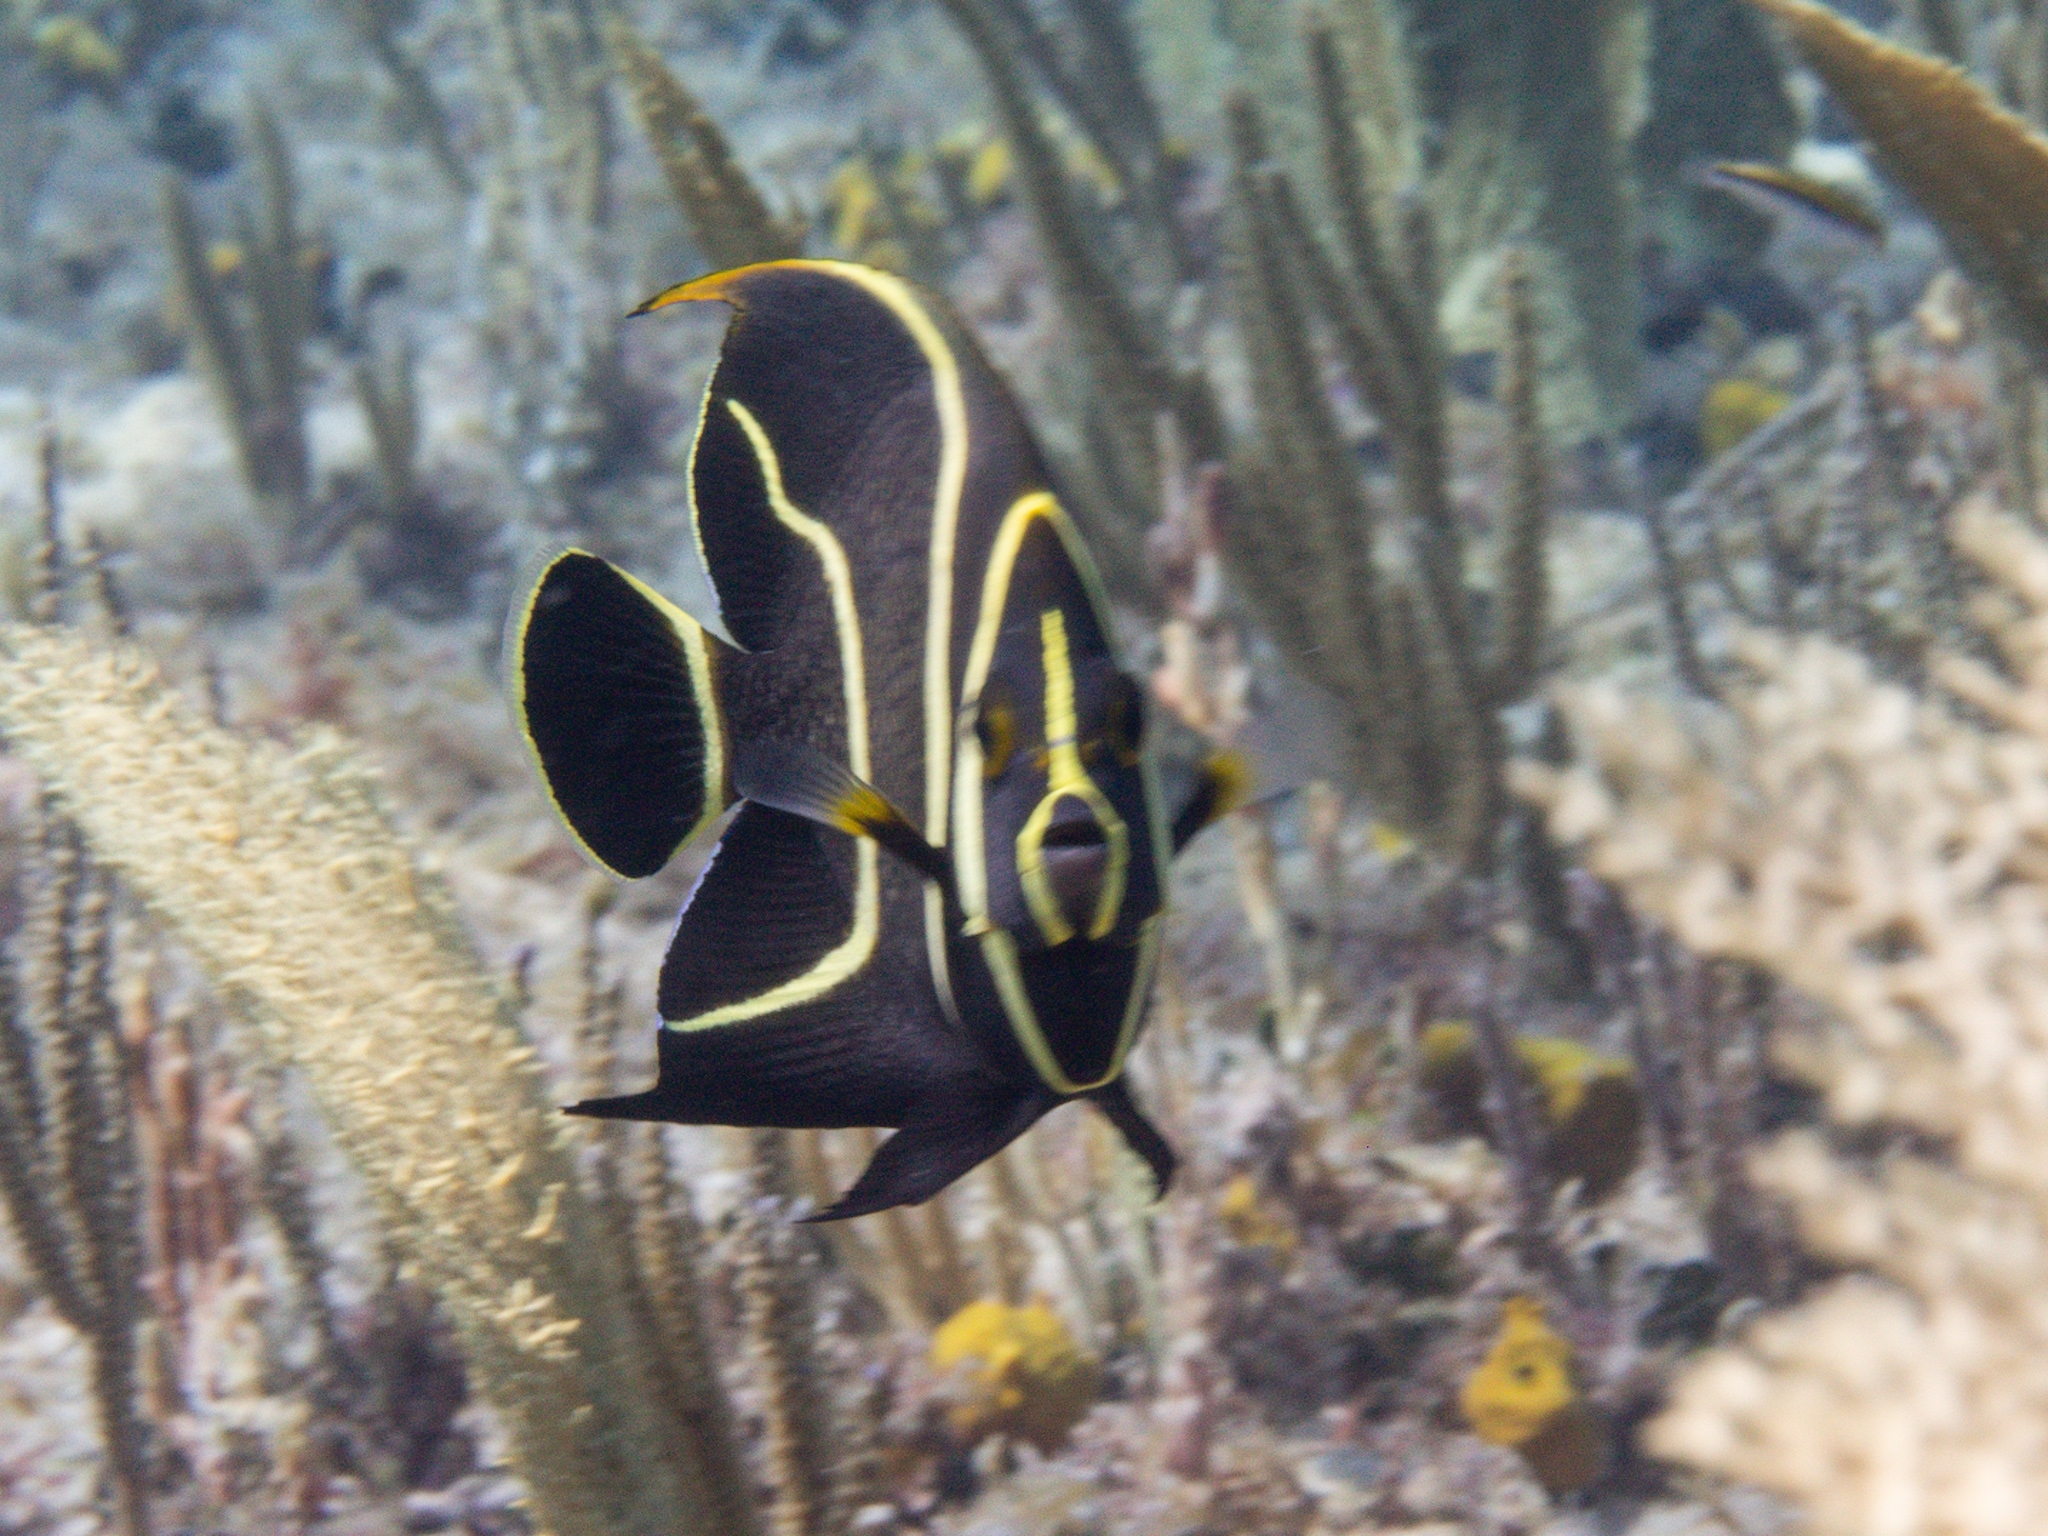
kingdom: Animalia
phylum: Chordata
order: Perciformes
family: Pomacanthidae
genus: Pomacanthus
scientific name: Pomacanthus paru
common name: French angelfish
